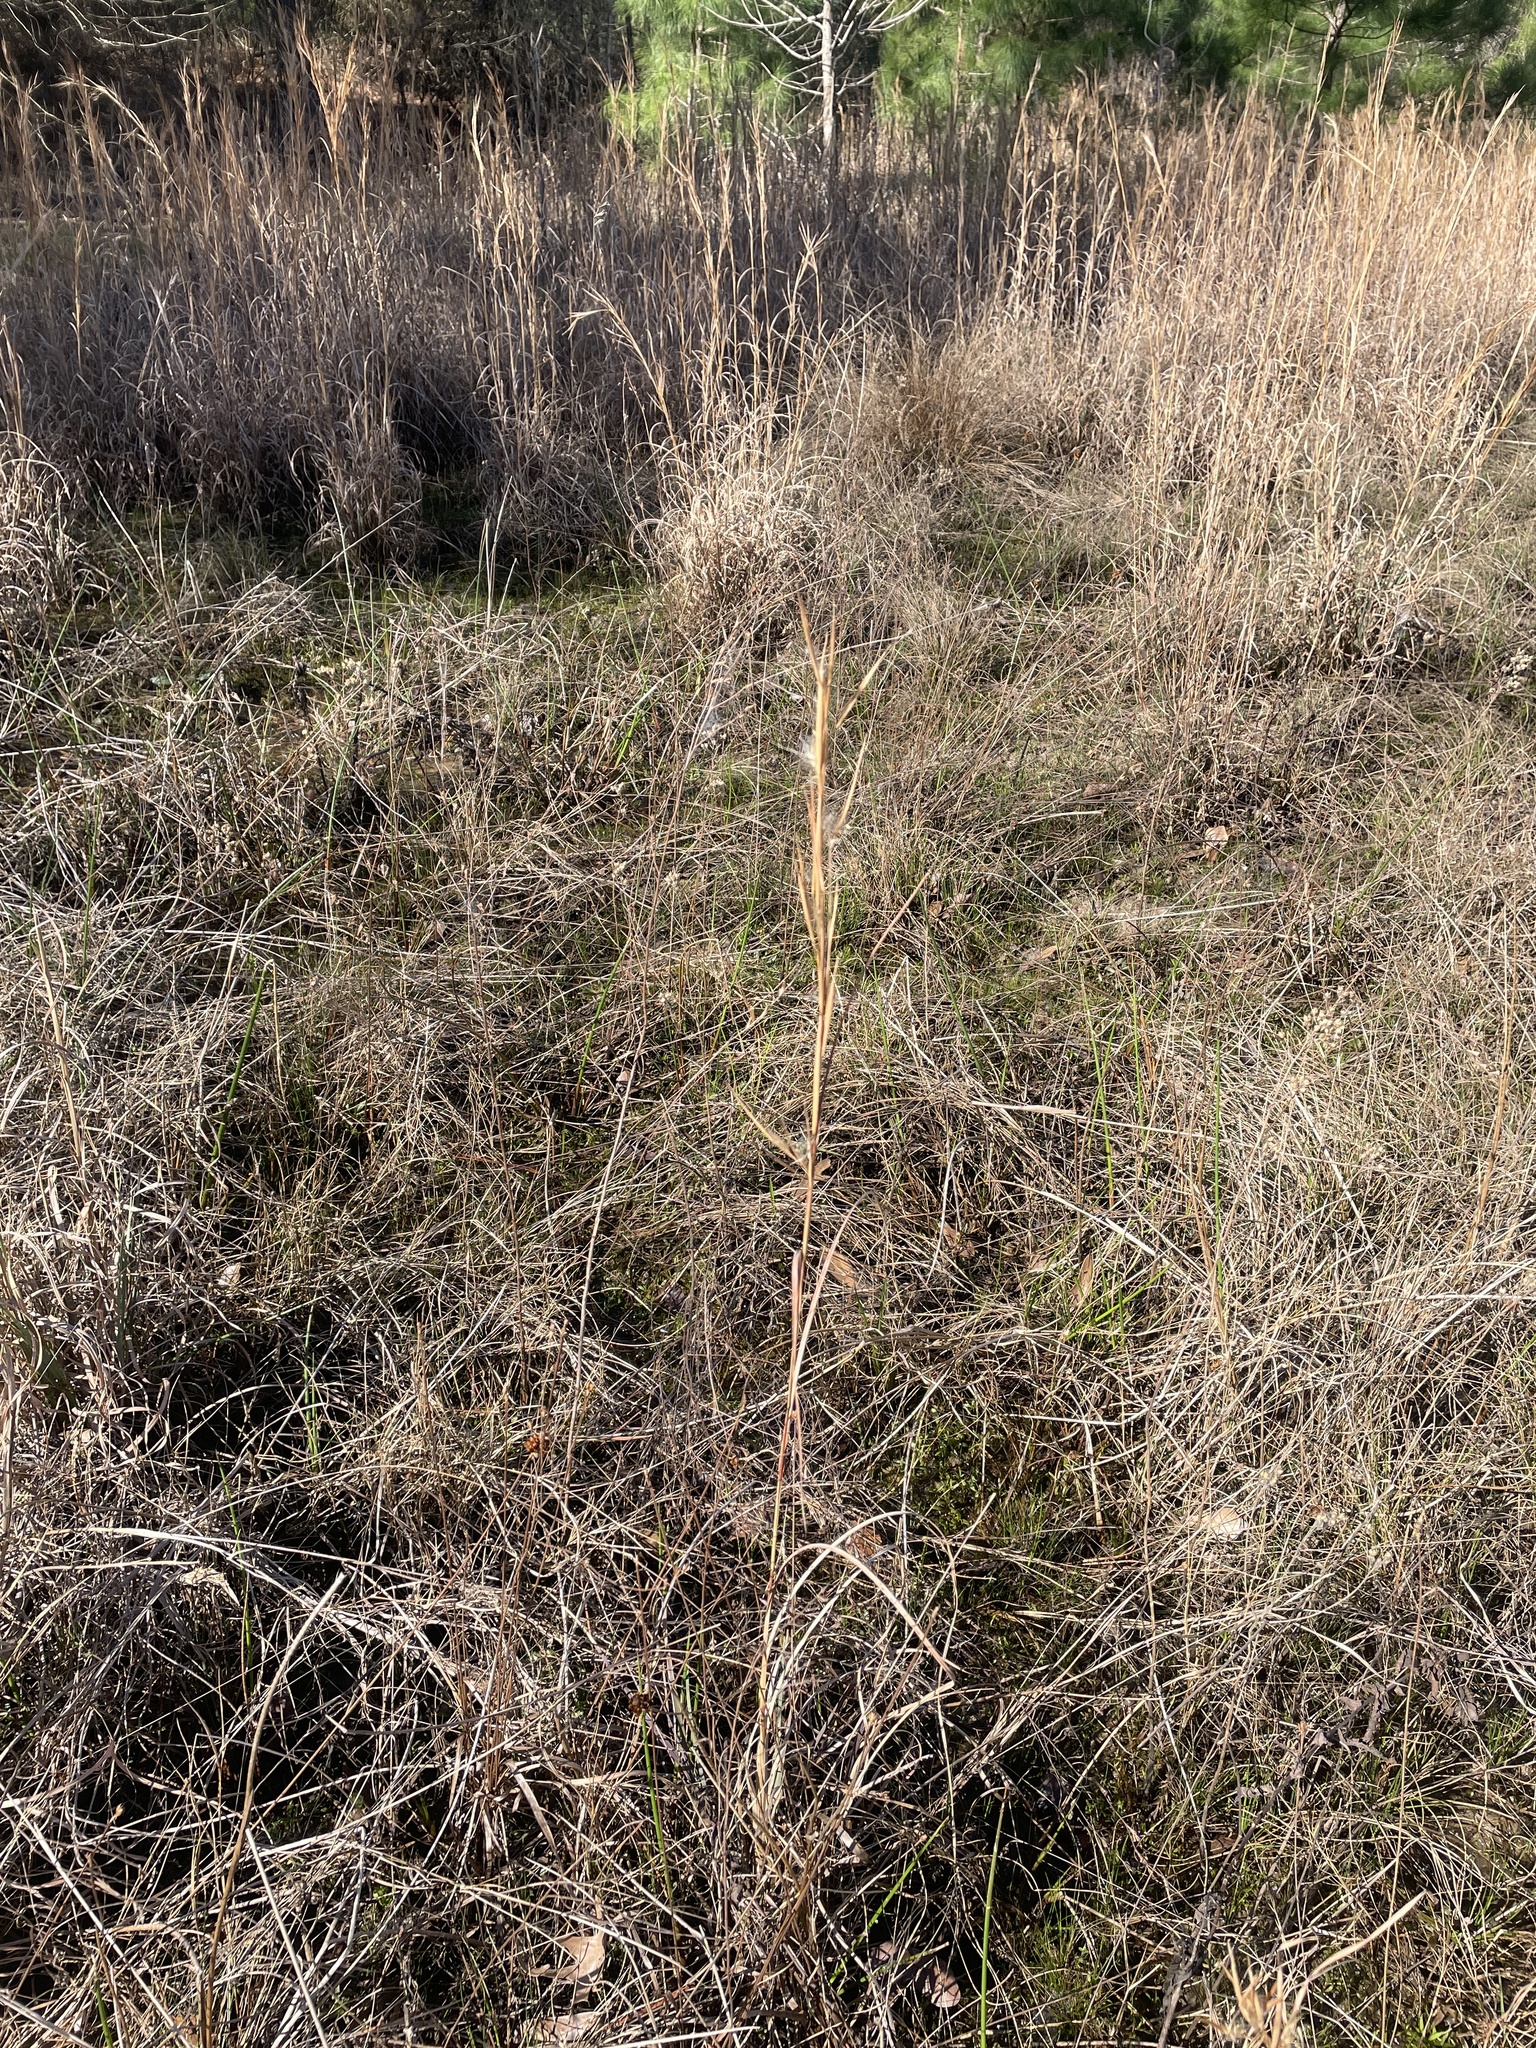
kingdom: Plantae
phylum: Tracheophyta
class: Liliopsida
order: Poales
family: Poaceae
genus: Andropogon
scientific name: Andropogon virginicus
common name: Broomsedge bluestem
